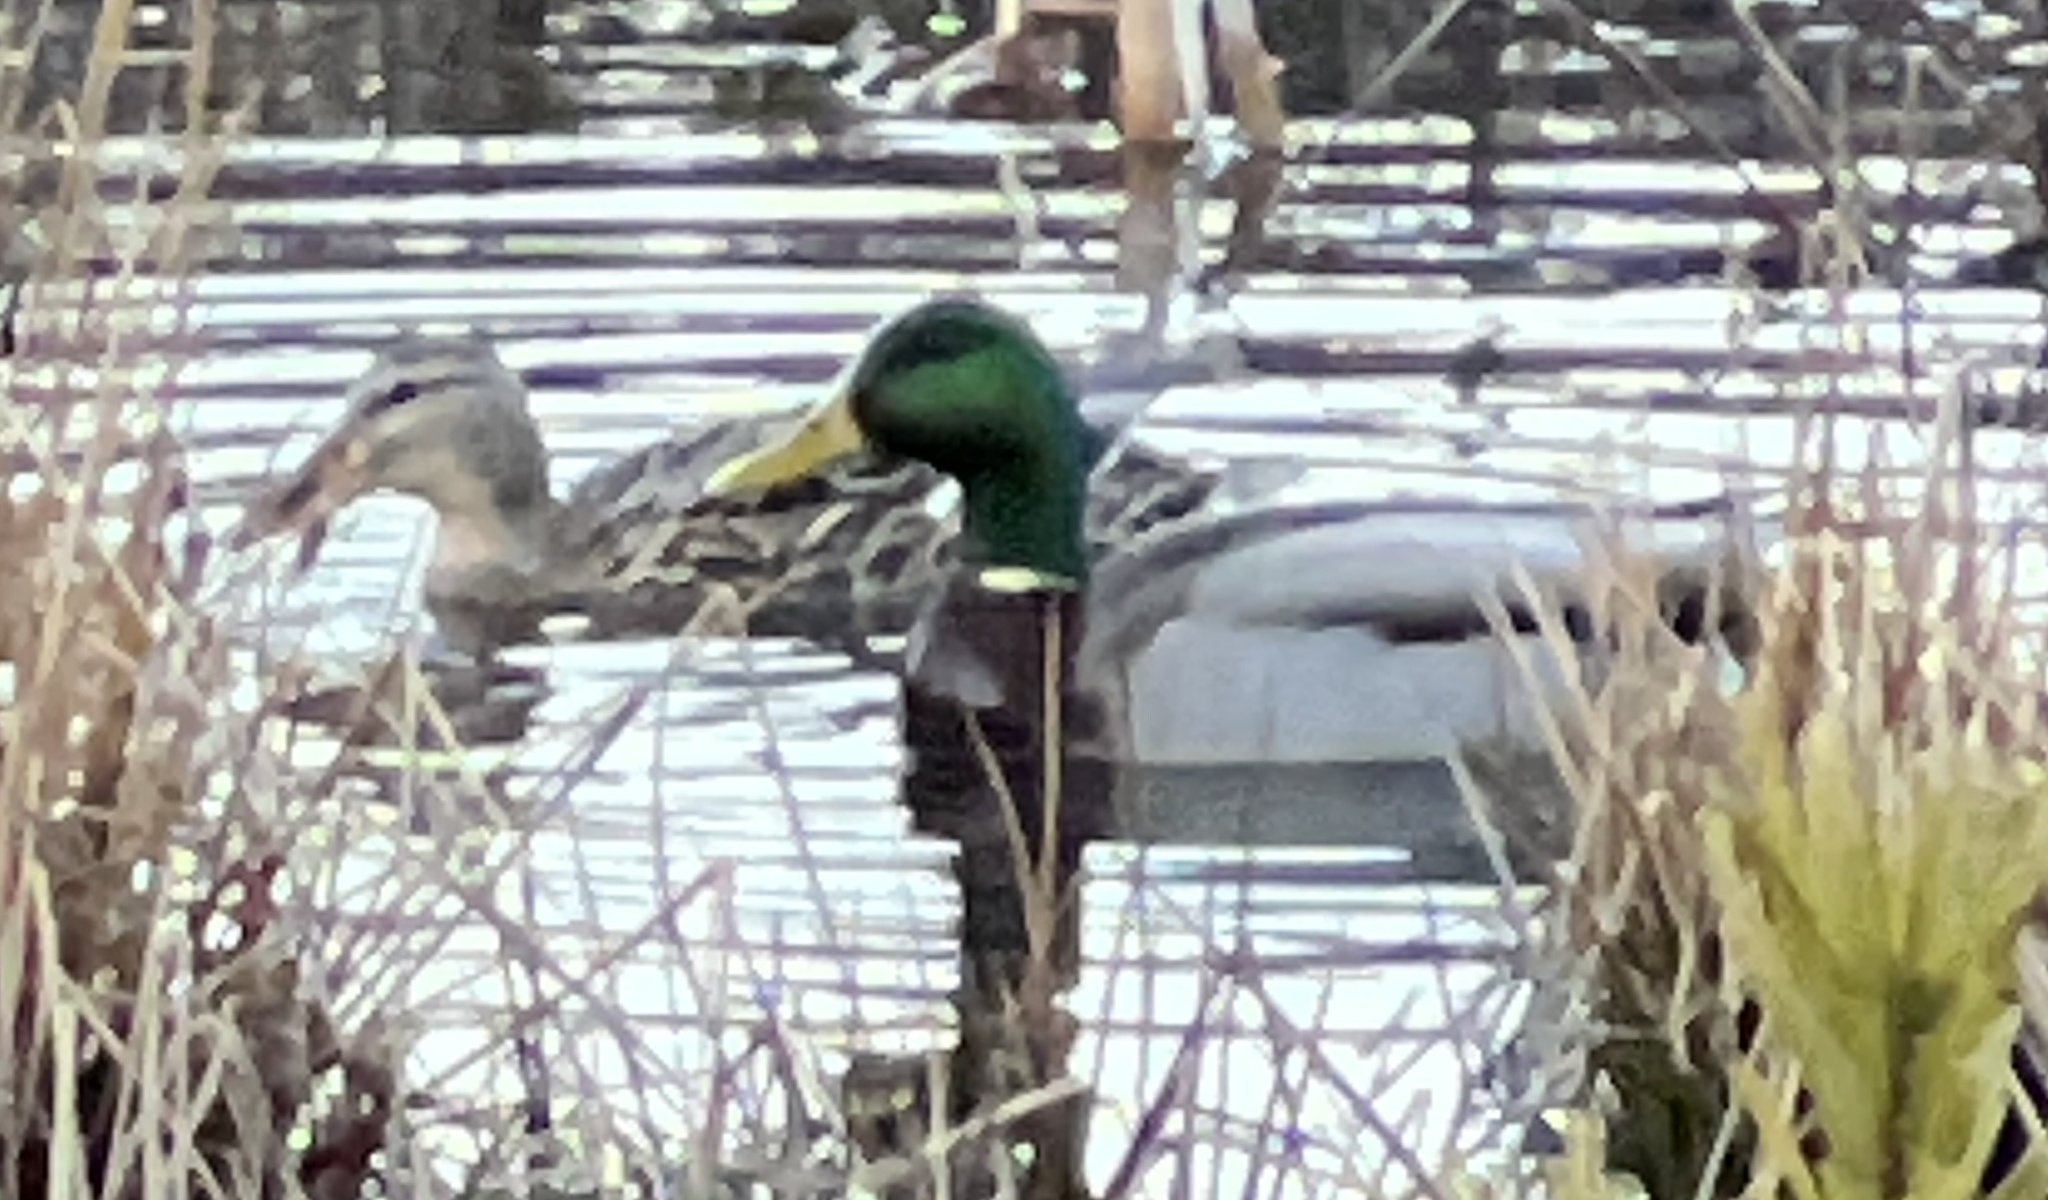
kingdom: Animalia
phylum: Chordata
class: Aves
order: Anseriformes
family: Anatidae
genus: Anas
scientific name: Anas platyrhynchos
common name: Mallard
